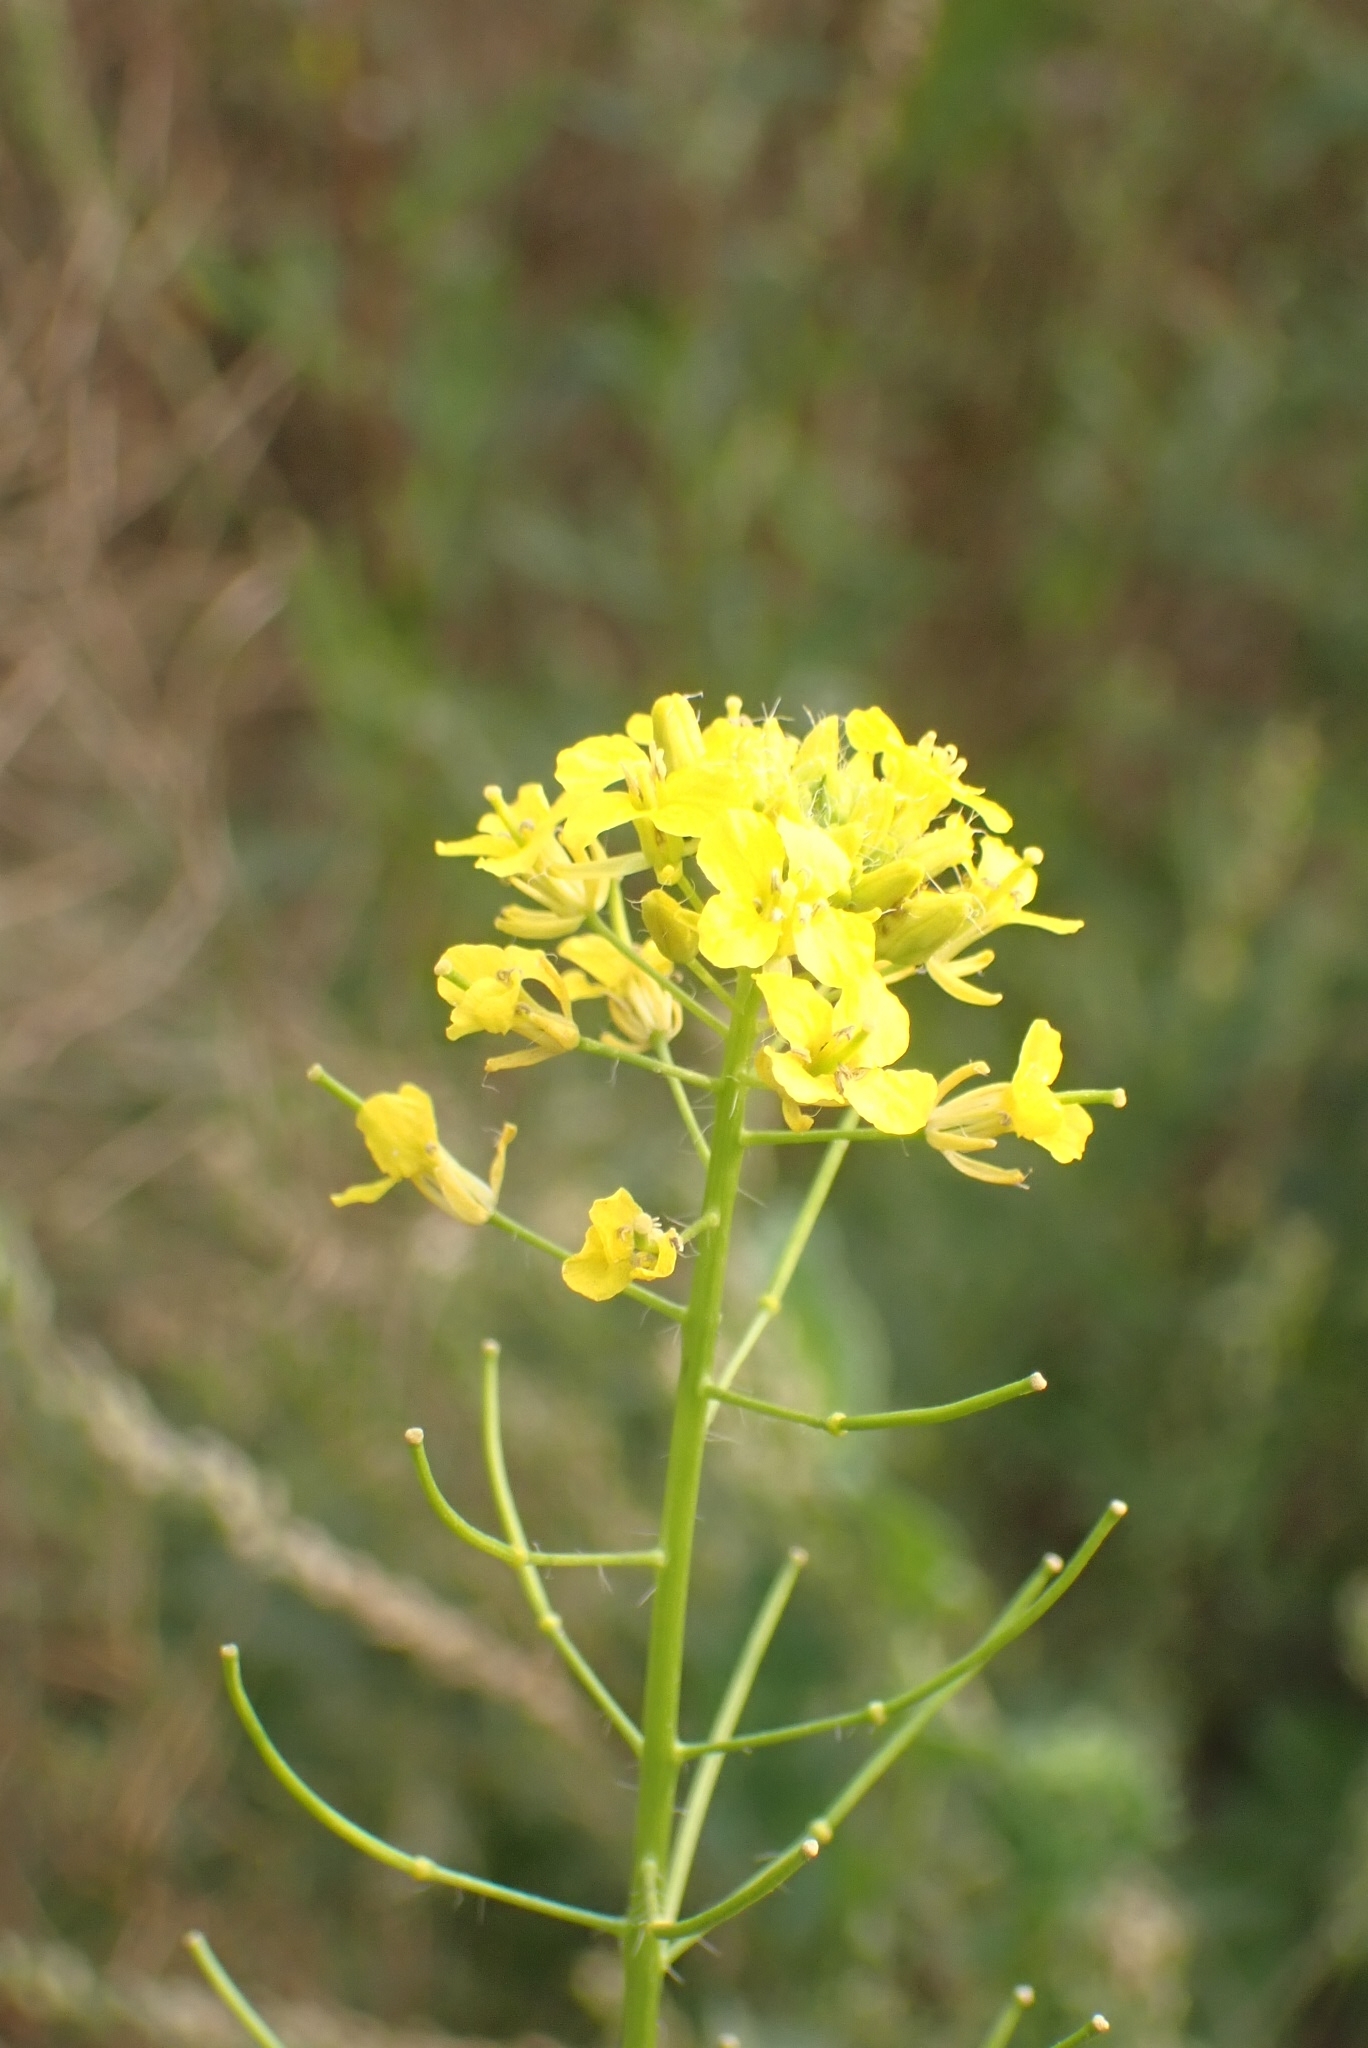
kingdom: Plantae
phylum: Tracheophyta
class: Magnoliopsida
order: Brassicales
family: Brassicaceae
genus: Sisymbrium
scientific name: Sisymbrium loeselii
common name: False london-rocket
